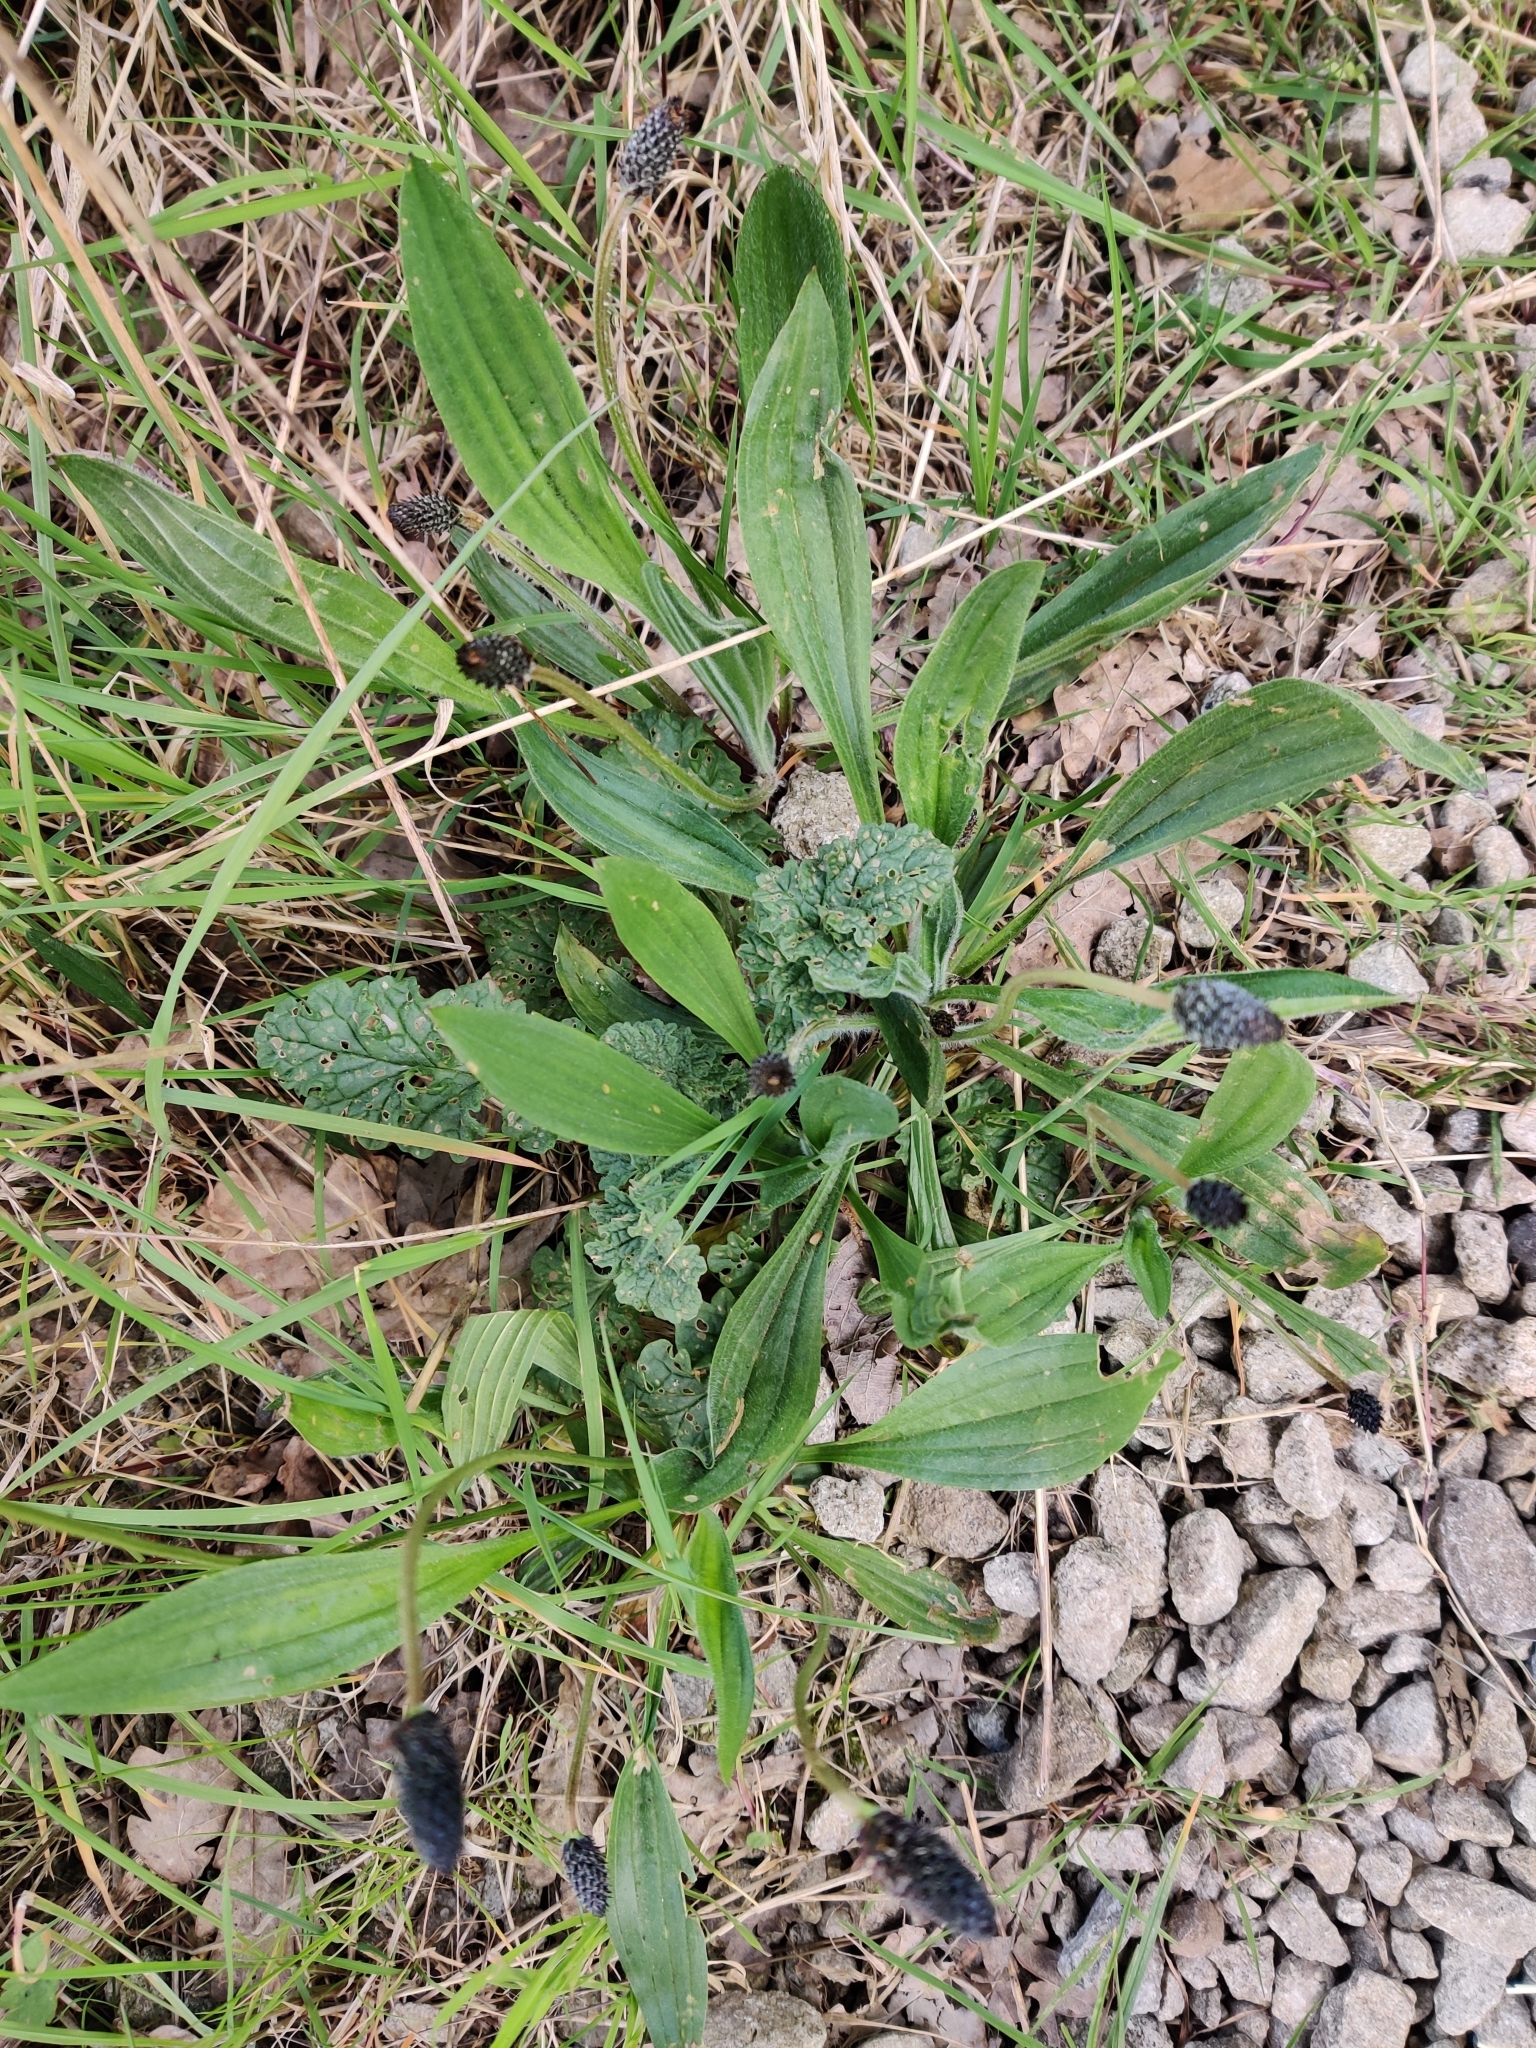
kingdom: Plantae
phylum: Tracheophyta
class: Magnoliopsida
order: Lamiales
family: Plantaginaceae
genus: Plantago
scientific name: Plantago lanceolata
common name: Ribwort plantain
